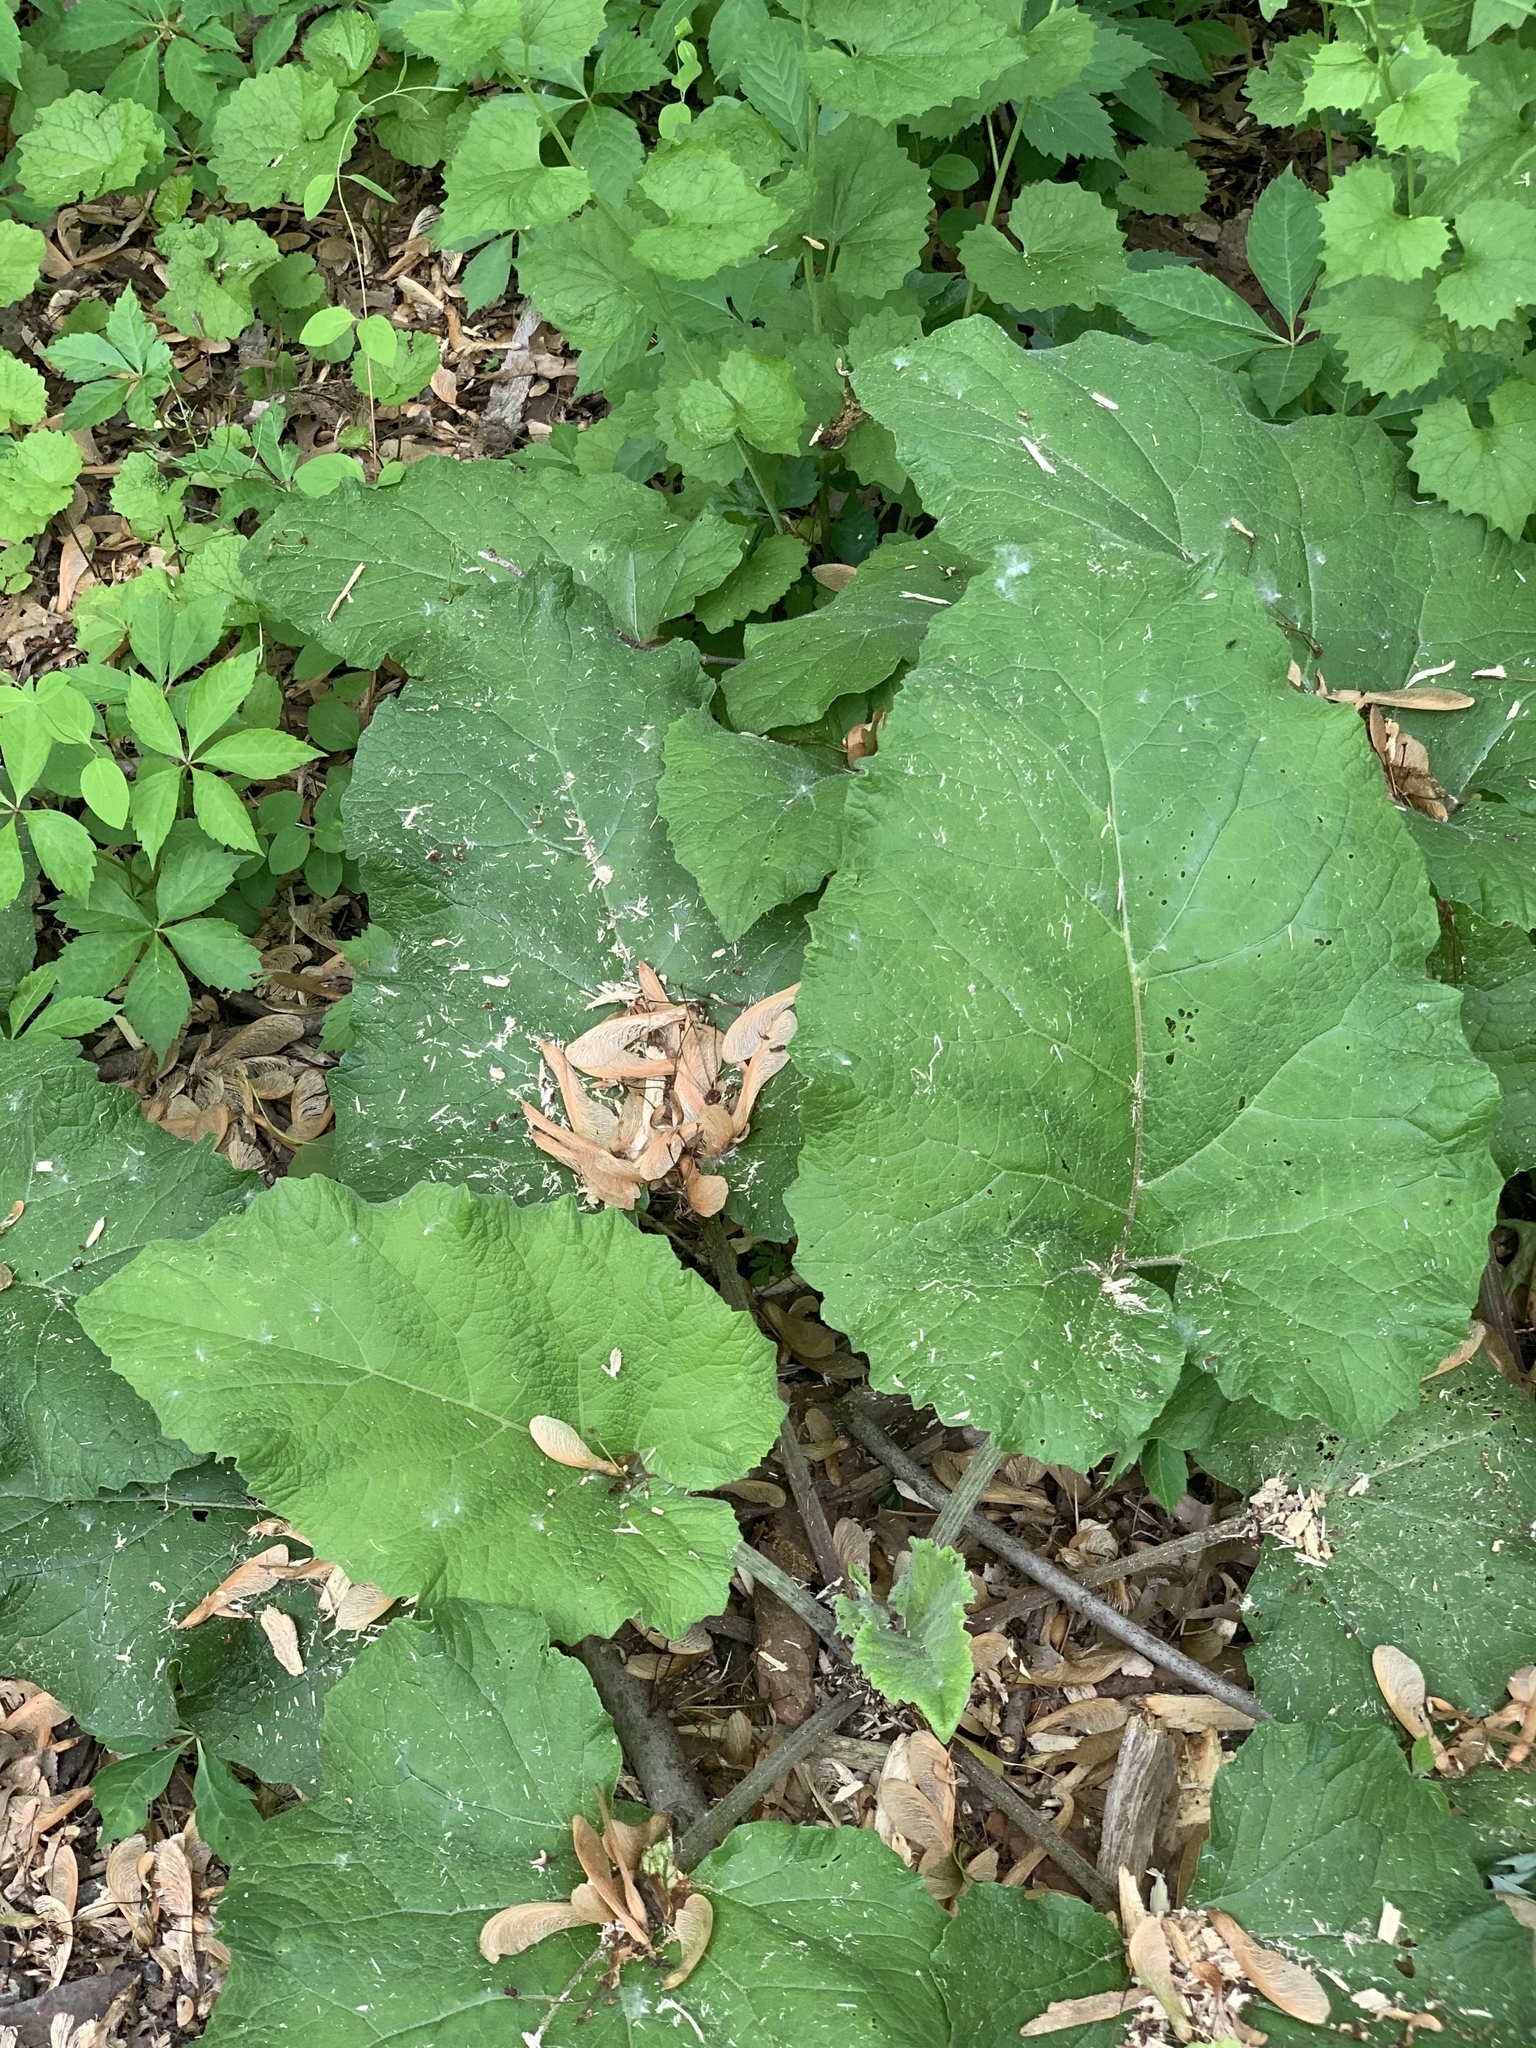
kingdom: Plantae
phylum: Tracheophyta
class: Magnoliopsida
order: Asterales
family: Asteraceae
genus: Arctium
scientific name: Arctium
